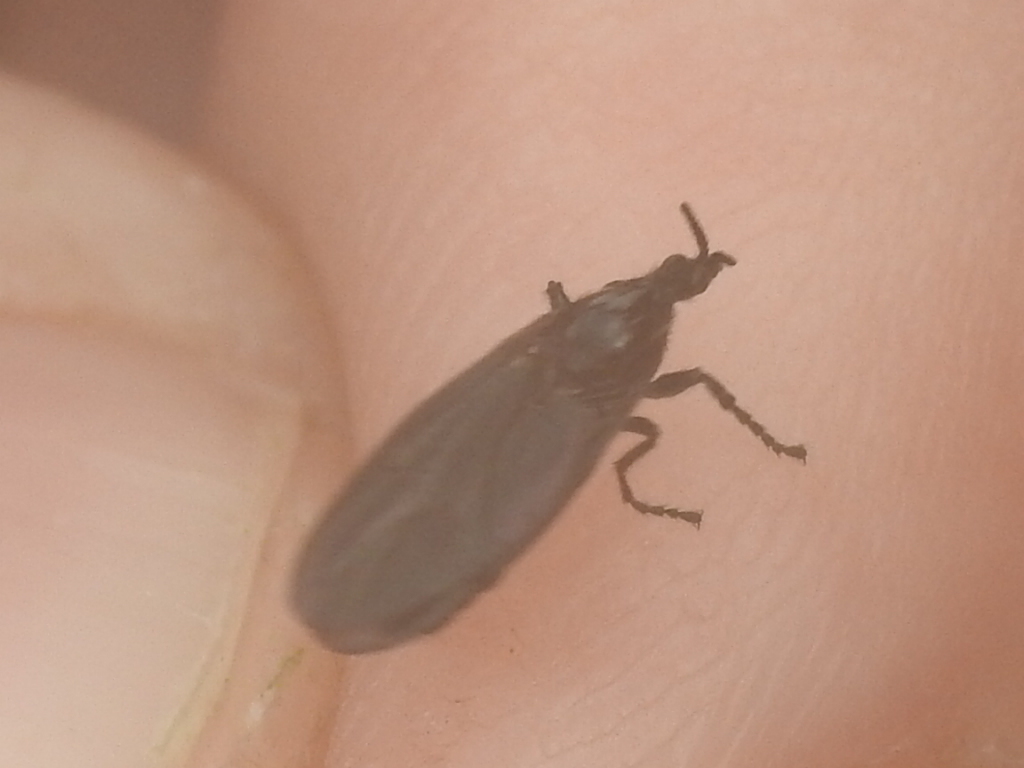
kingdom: Animalia
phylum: Arthropoda
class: Insecta
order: Diptera
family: Bibionidae
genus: Dilophus
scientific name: Dilophus orbatus
